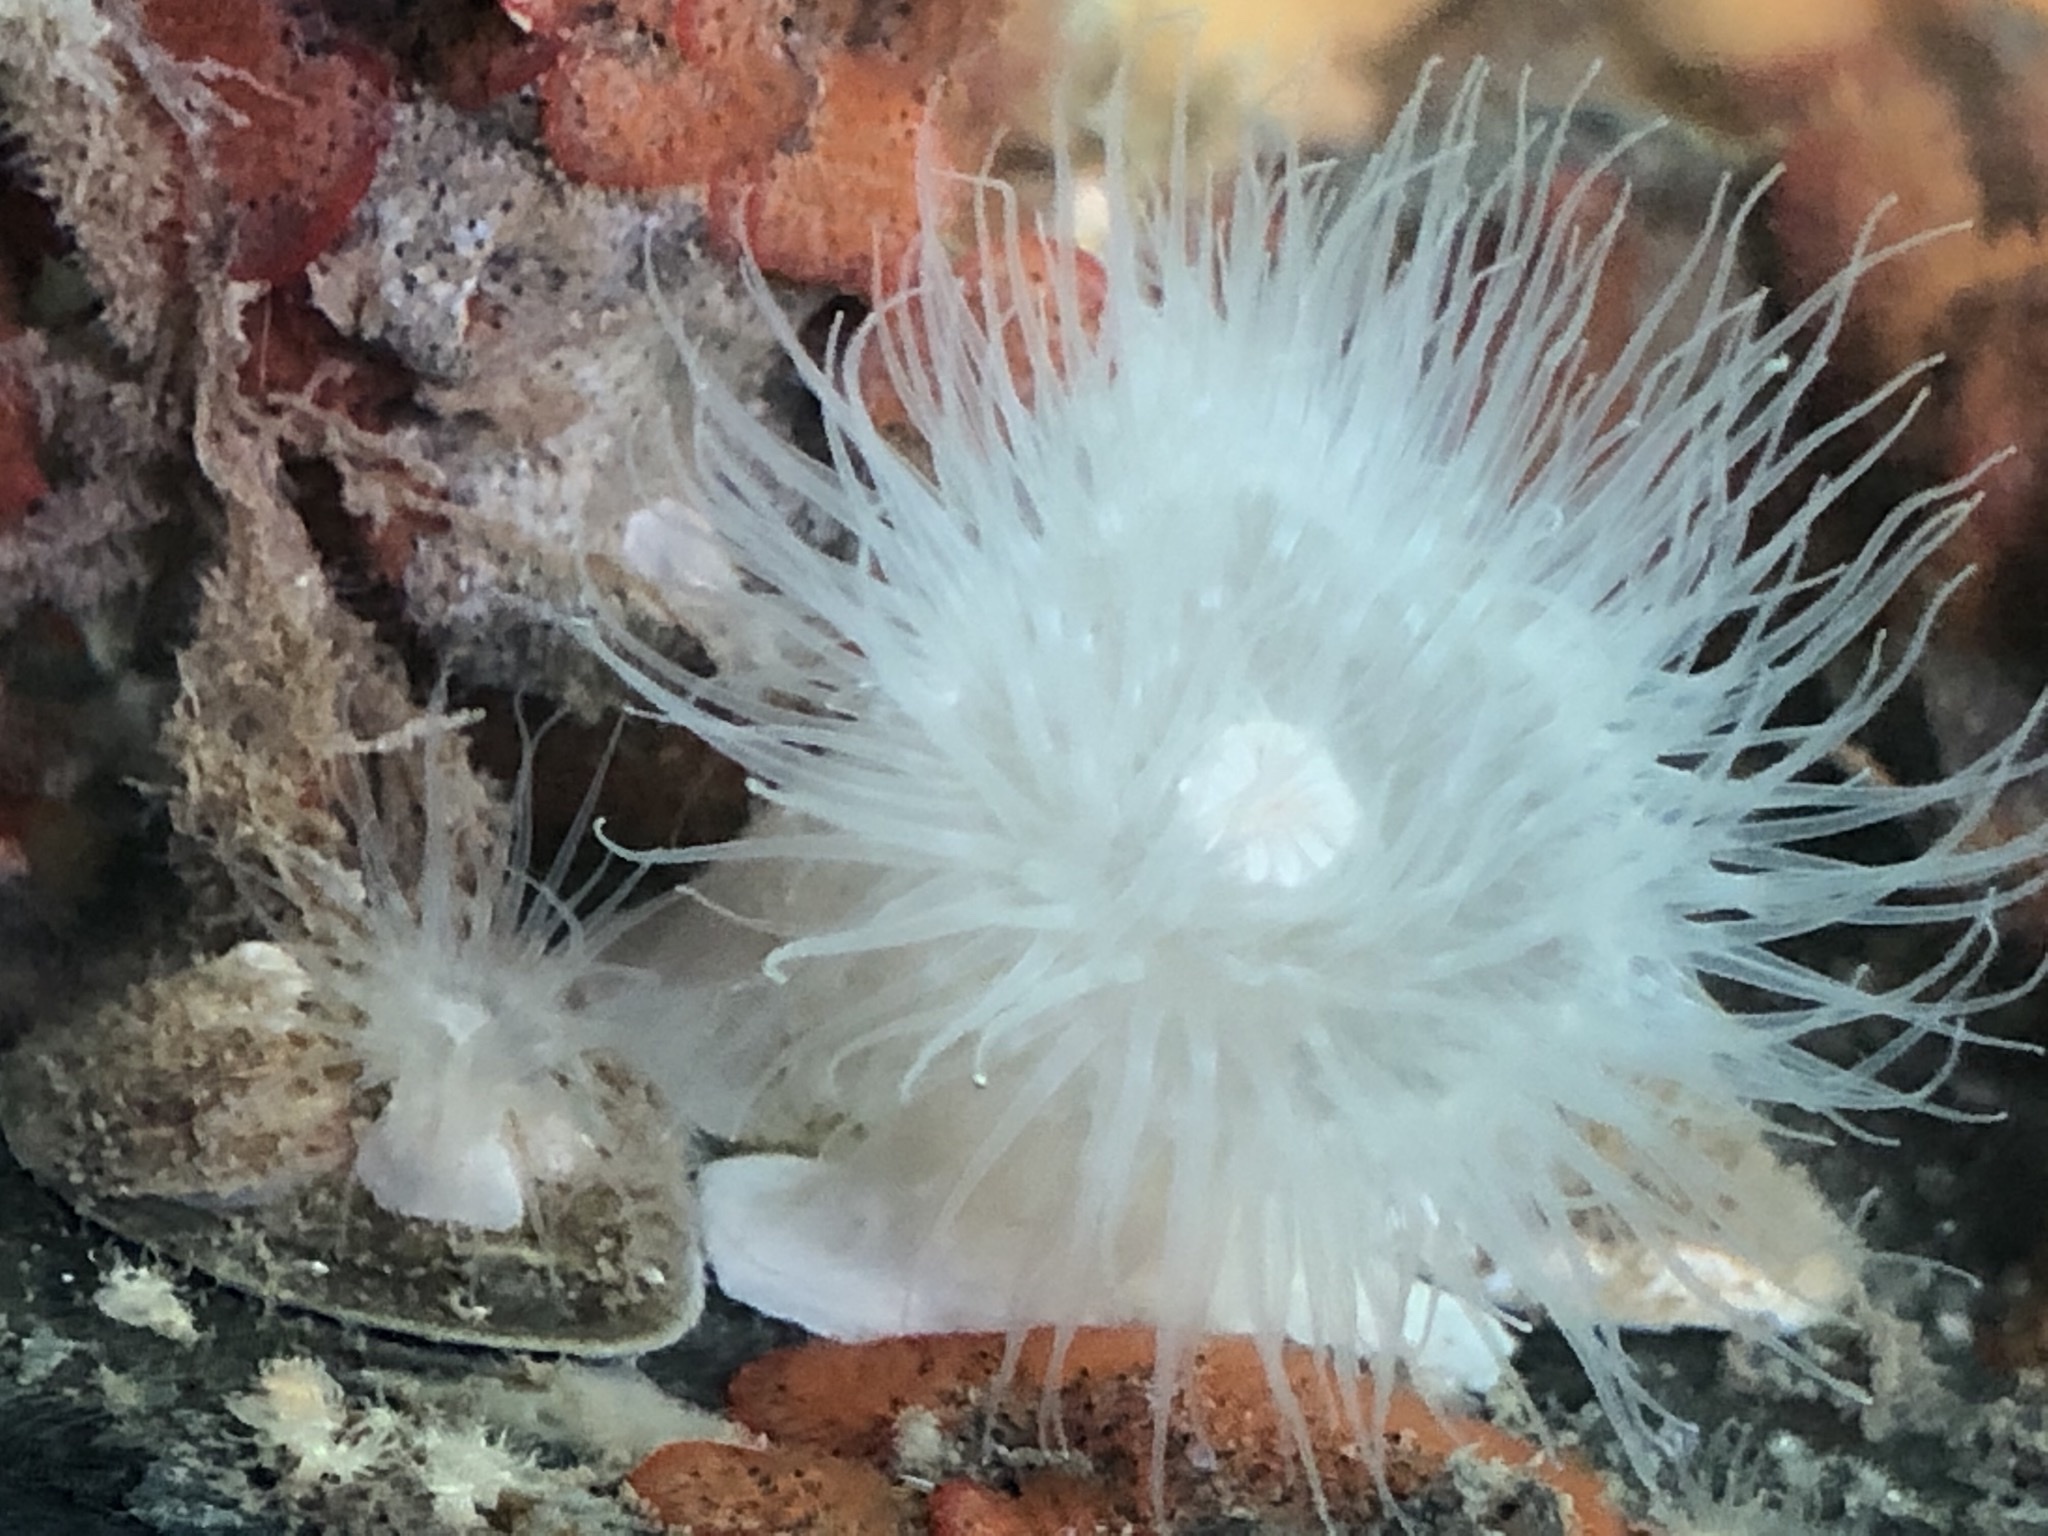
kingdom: Animalia
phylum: Cnidaria
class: Anthozoa
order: Actiniaria
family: Metridiidae
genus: Metridium
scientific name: Metridium senile
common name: Clonal plumose anemone
